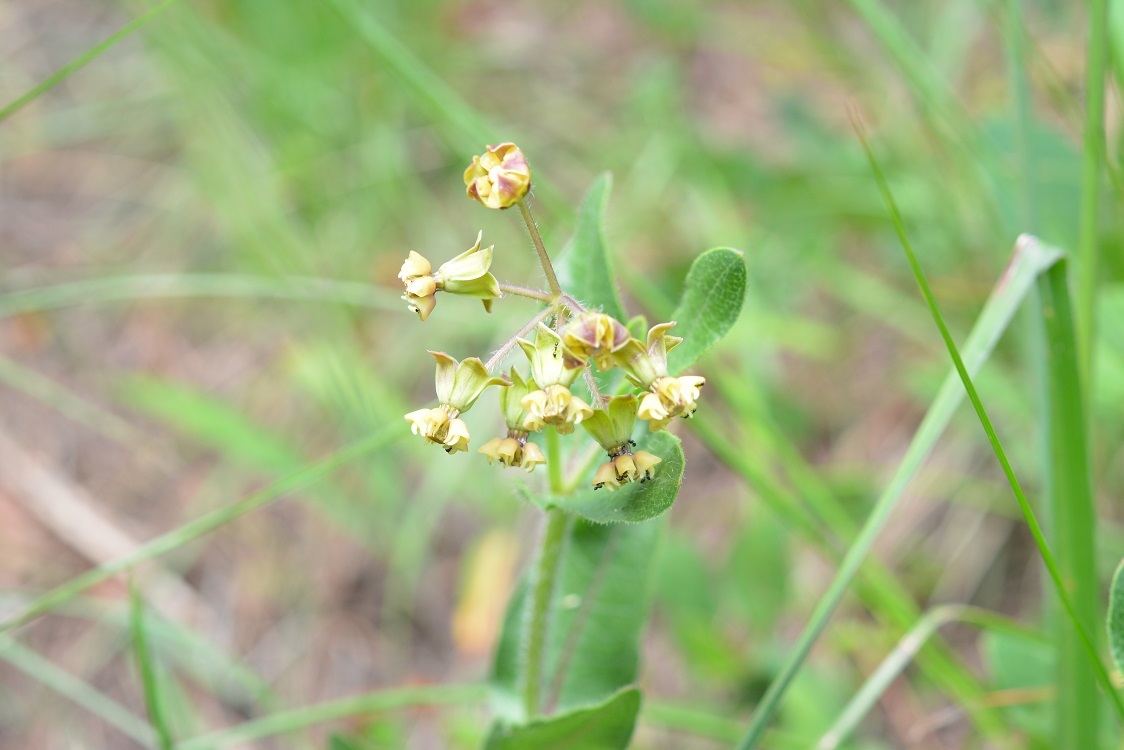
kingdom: Plantae
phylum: Tracheophyta
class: Magnoliopsida
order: Gentianales
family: Apocynaceae
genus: Asclepias
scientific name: Asclepias contrayerba
